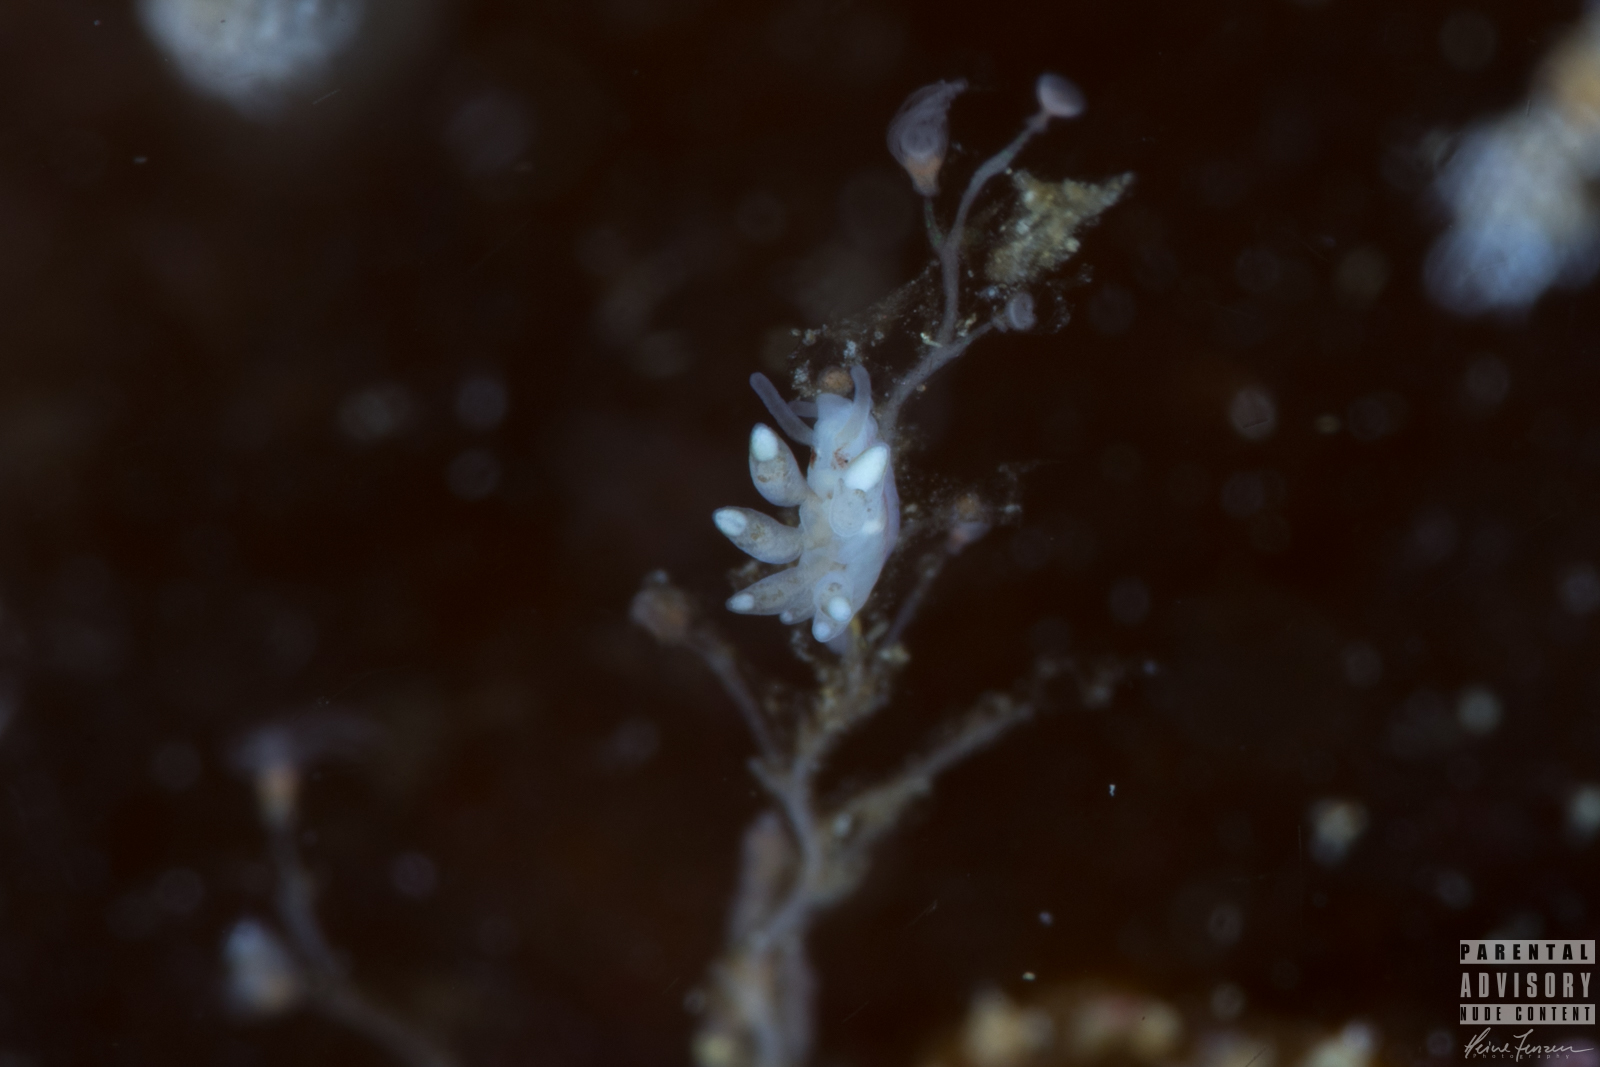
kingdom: Animalia
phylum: Mollusca
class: Gastropoda
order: Nudibranchia
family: Tergipedidae
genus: Tergipes
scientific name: Tergipes tergipes
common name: Johnston's balloon eolis
